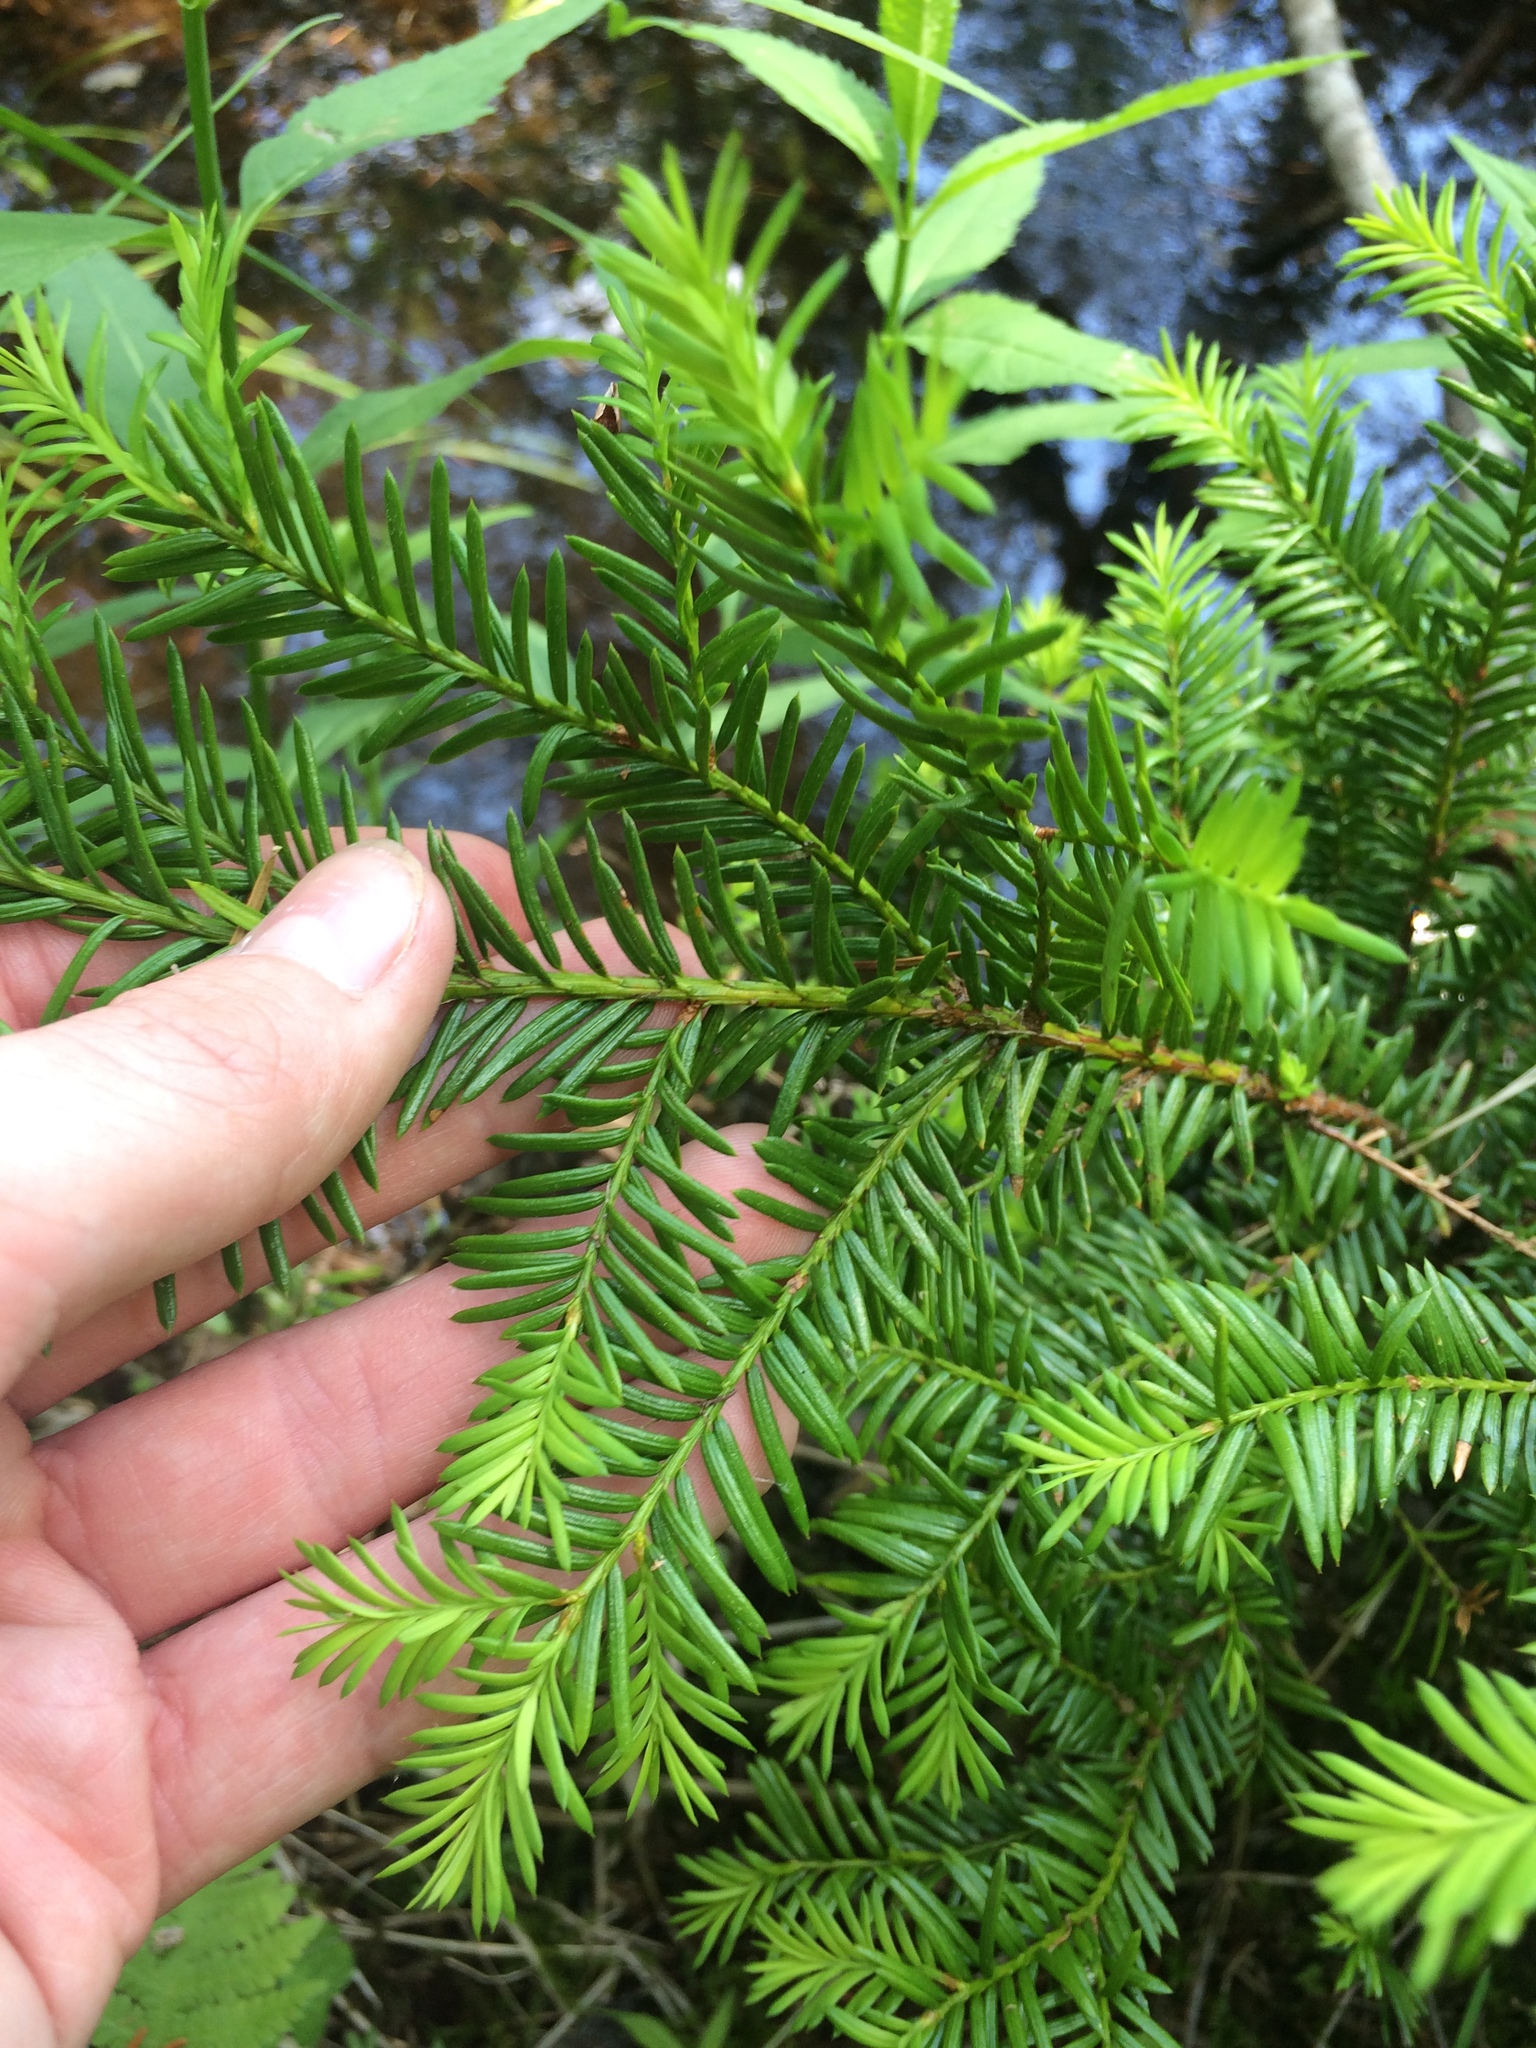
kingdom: Plantae
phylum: Tracheophyta
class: Pinopsida
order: Pinales
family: Taxaceae
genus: Taxus
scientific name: Taxus canadensis
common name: American yew
